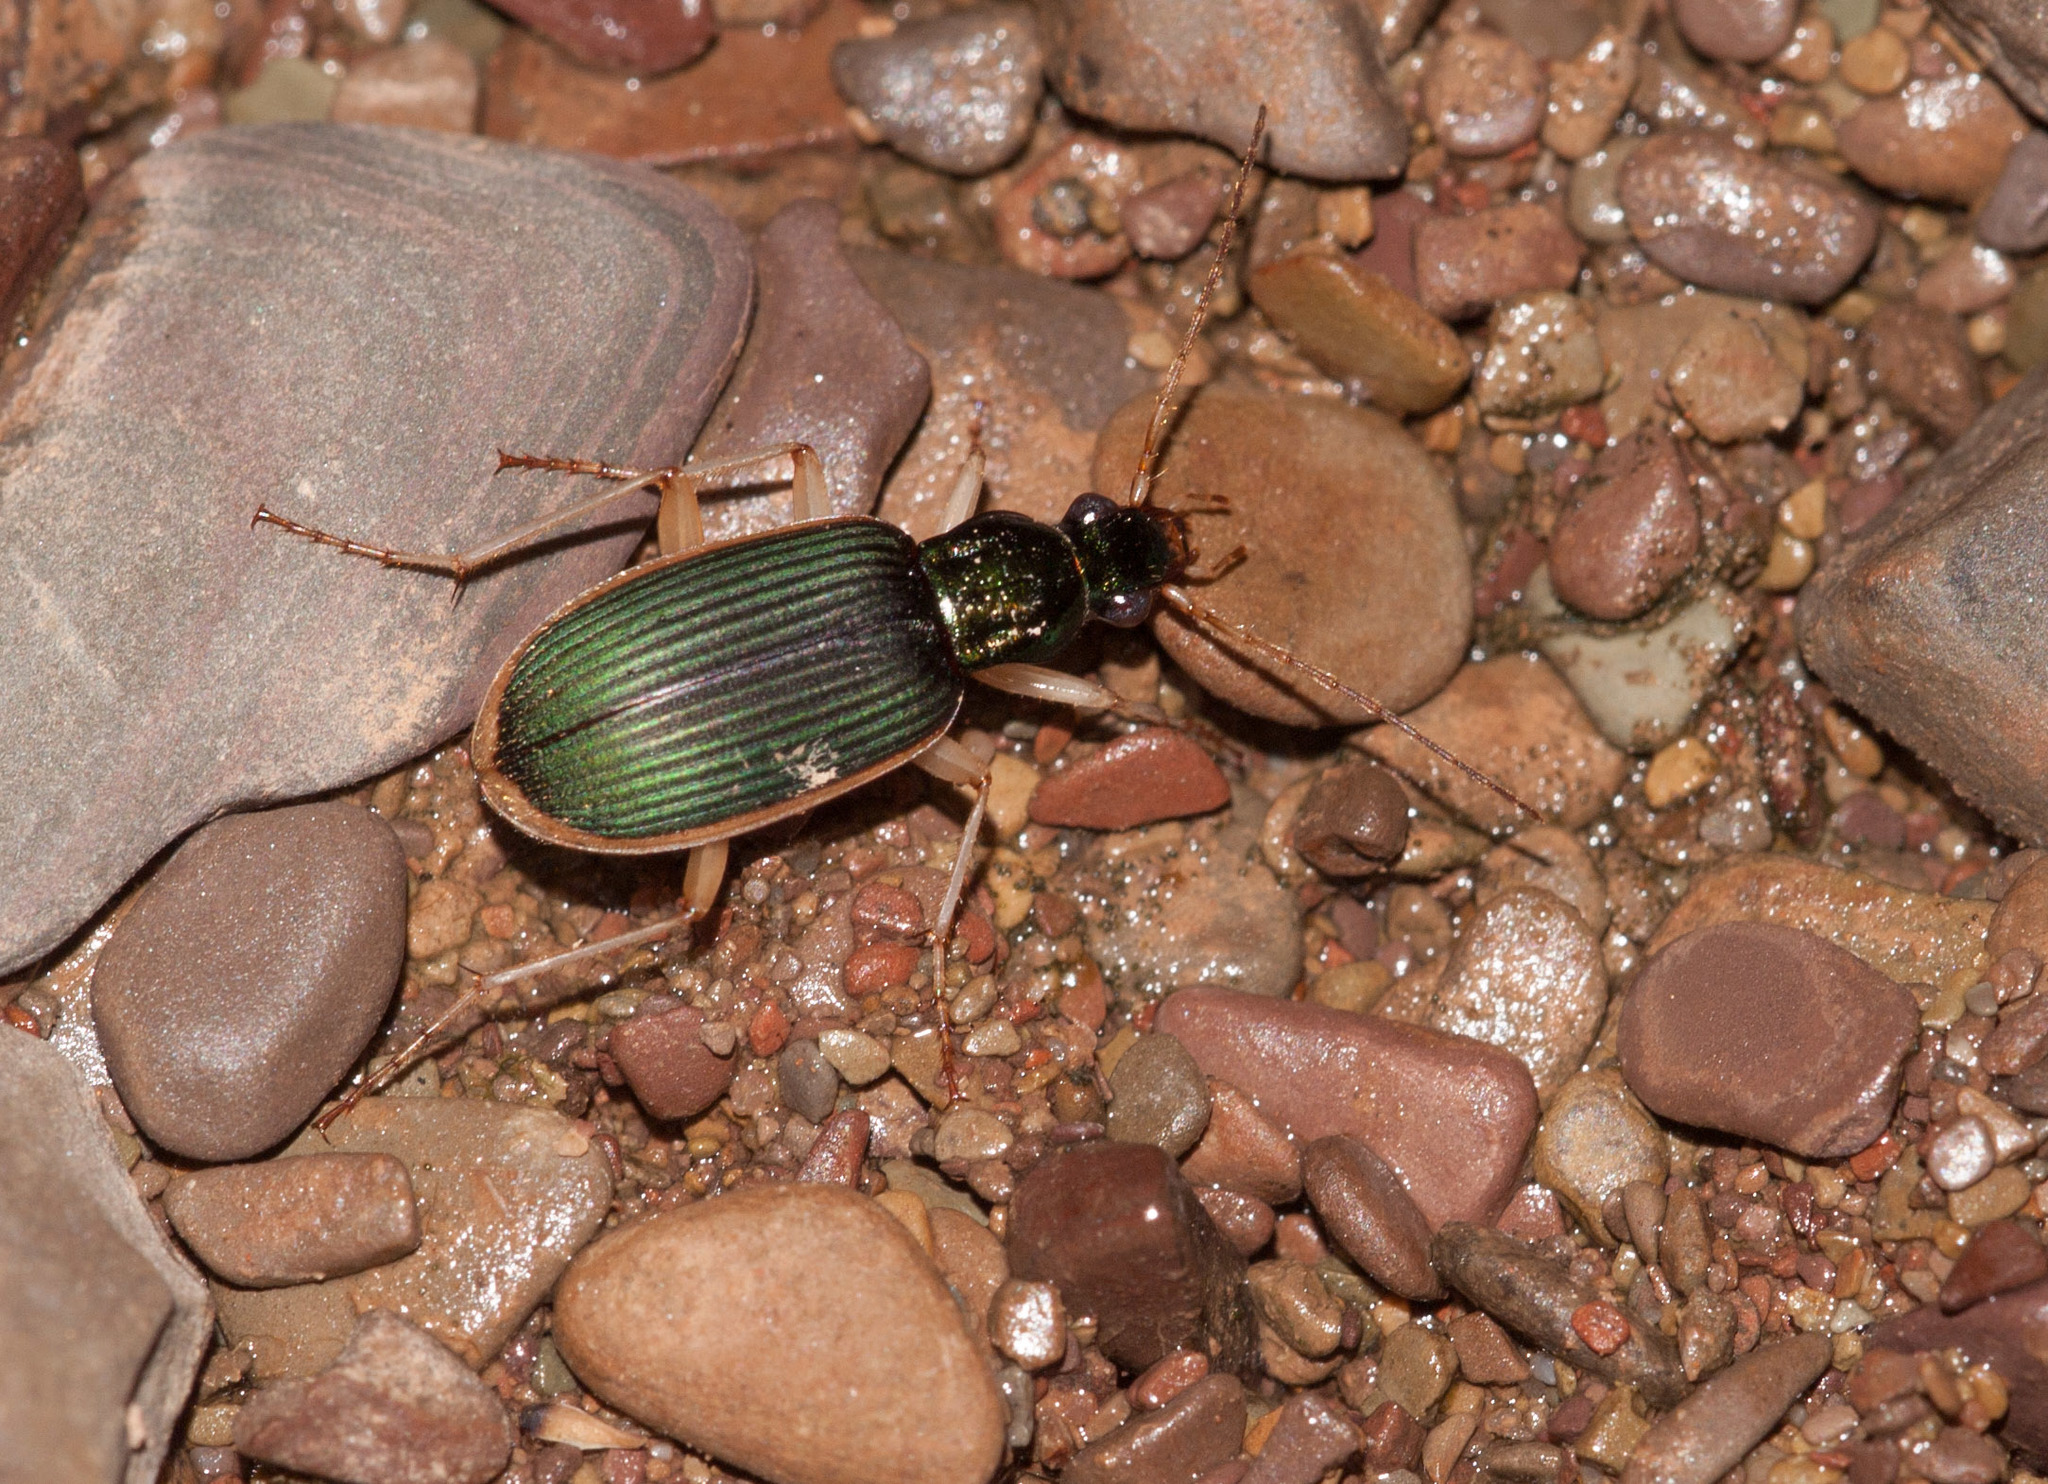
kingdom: Animalia
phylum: Arthropoda
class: Insecta
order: Coleoptera
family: Carabidae
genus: Chlaenius
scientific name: Chlaenius darlingensis
